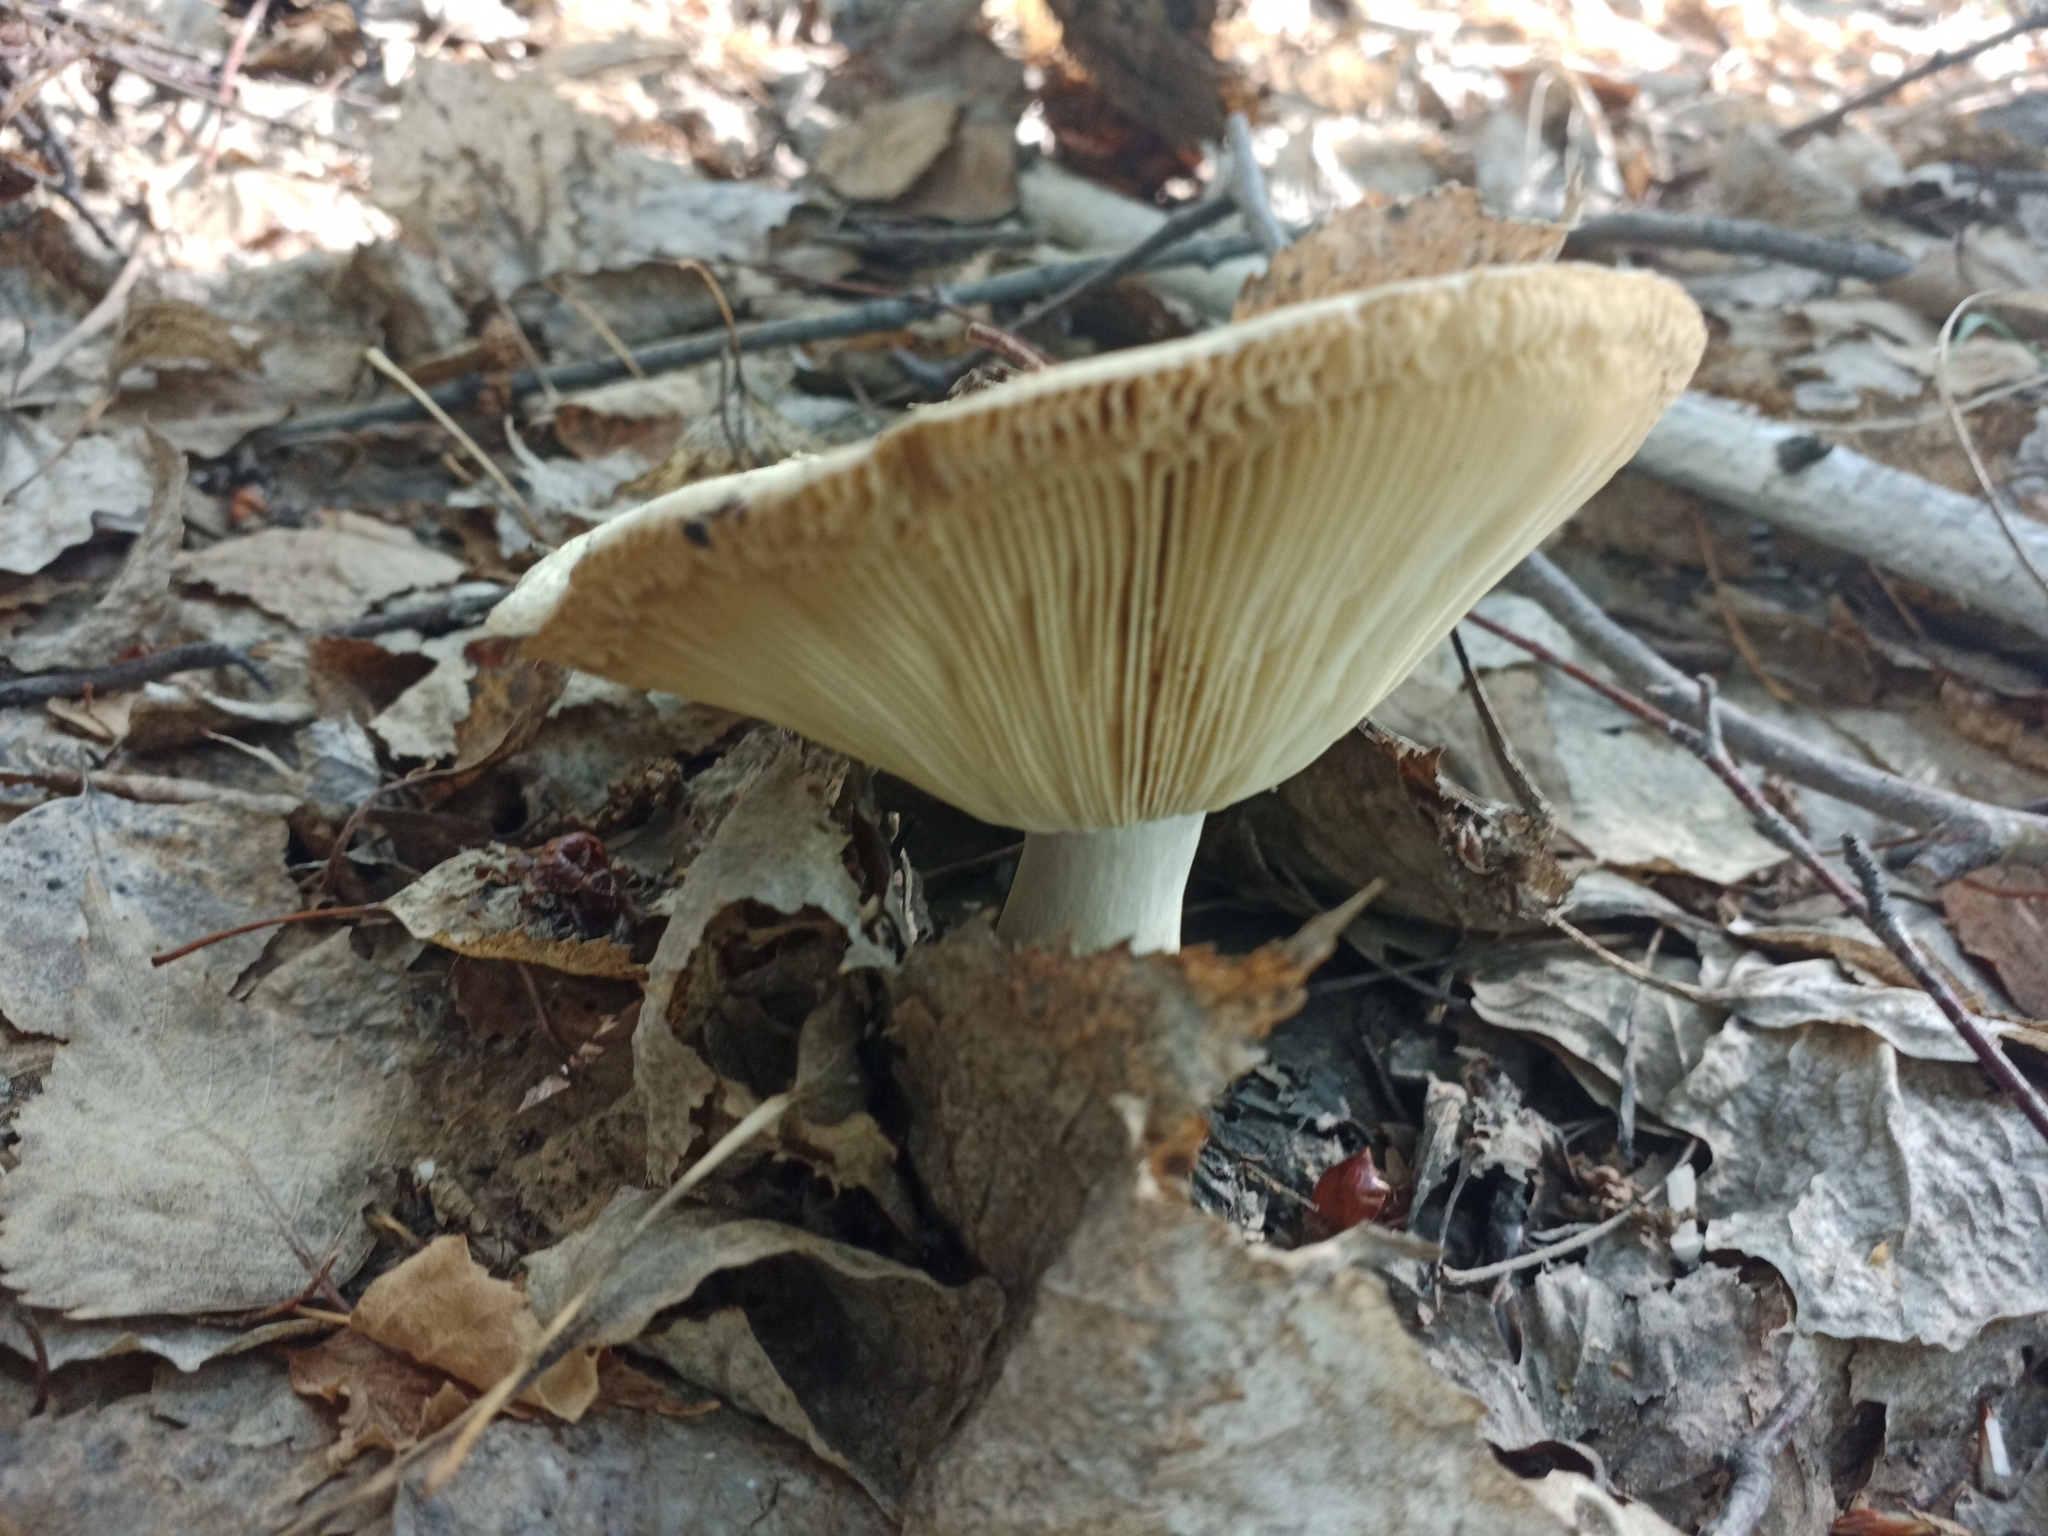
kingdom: Fungi
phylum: Basidiomycota
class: Agaricomycetes
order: Russulales
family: Russulaceae
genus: Russula
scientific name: Russula aeruginea
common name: Green brittlegill
